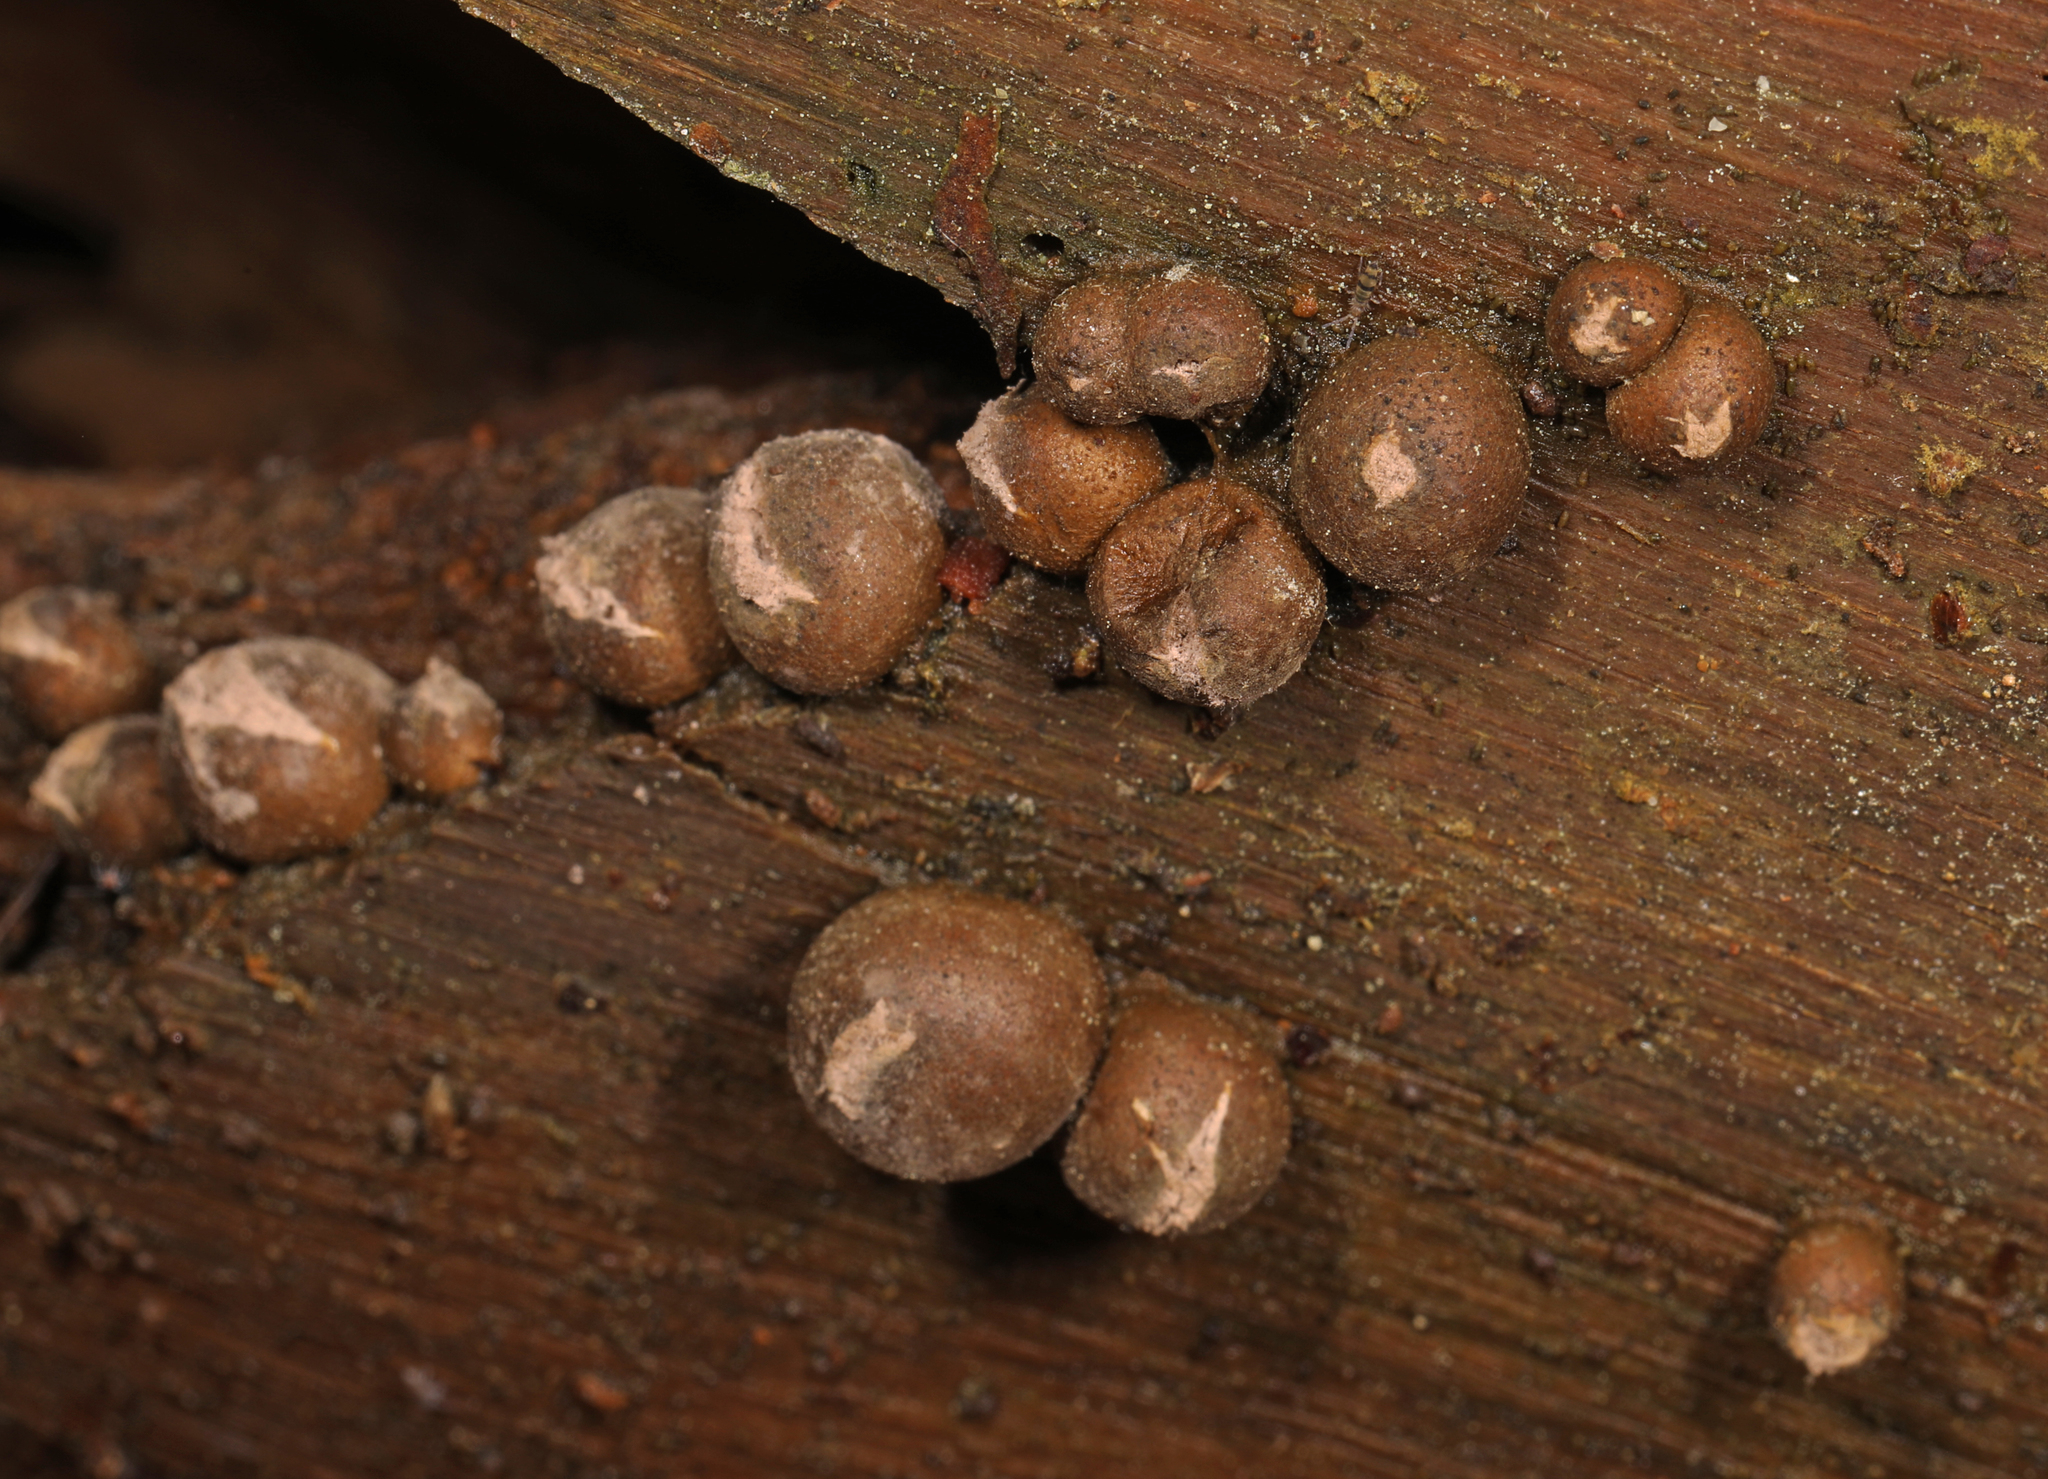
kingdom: Protozoa
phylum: Mycetozoa
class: Myxomycetes
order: Cribrariales
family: Tubiferaceae
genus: Lycogala
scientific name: Lycogala epidendrum
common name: Wolf's milk
